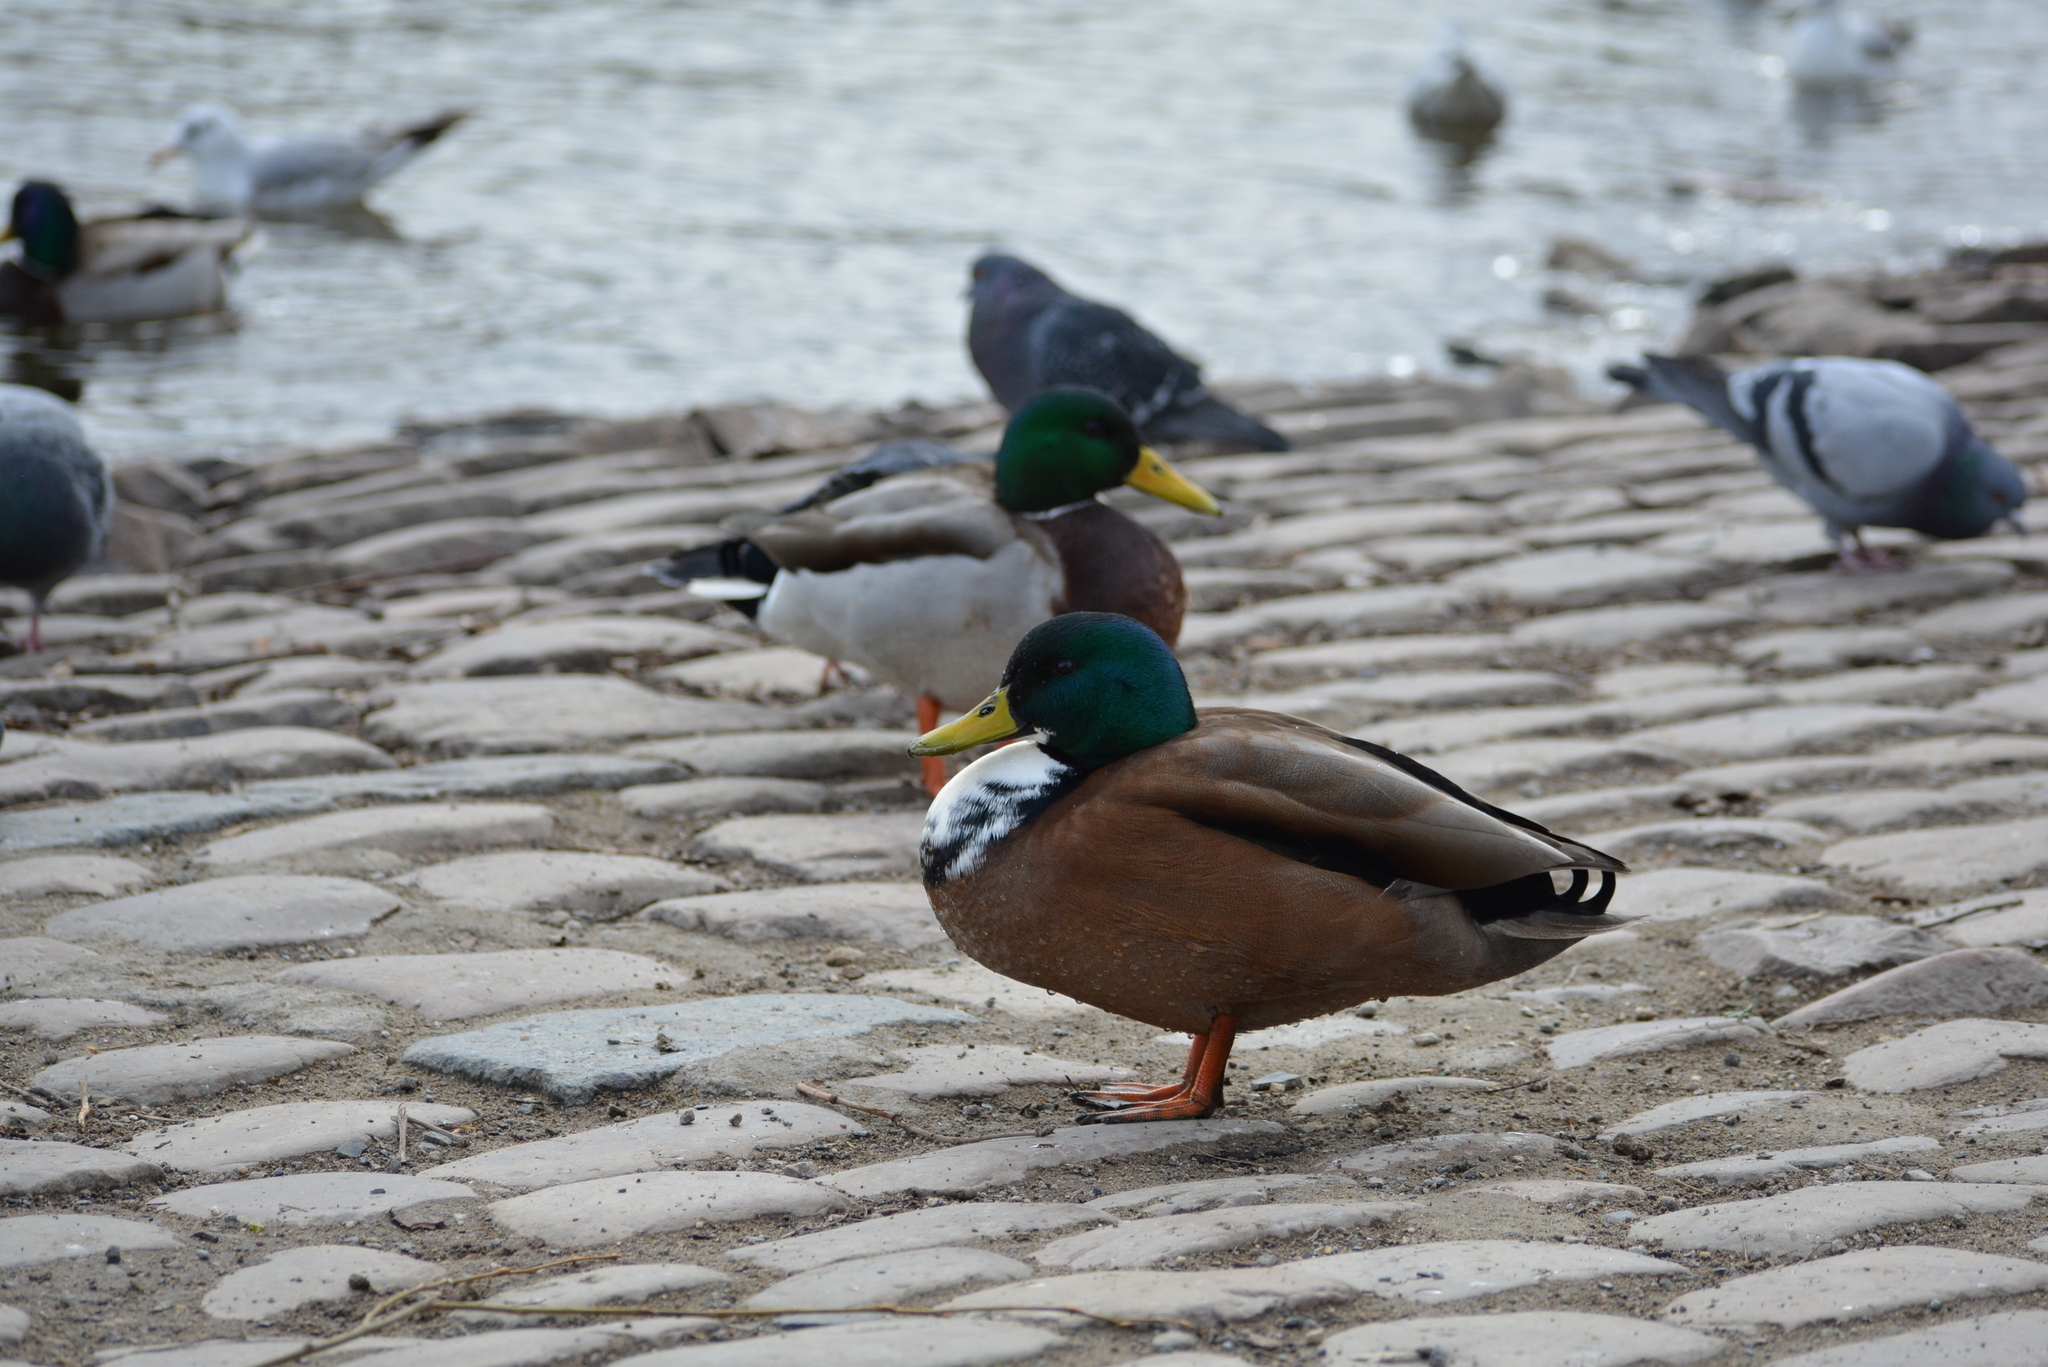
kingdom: Animalia
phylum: Chordata
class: Aves
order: Anseriformes
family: Anatidae
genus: Anas
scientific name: Anas platyrhynchos
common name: Mallard
